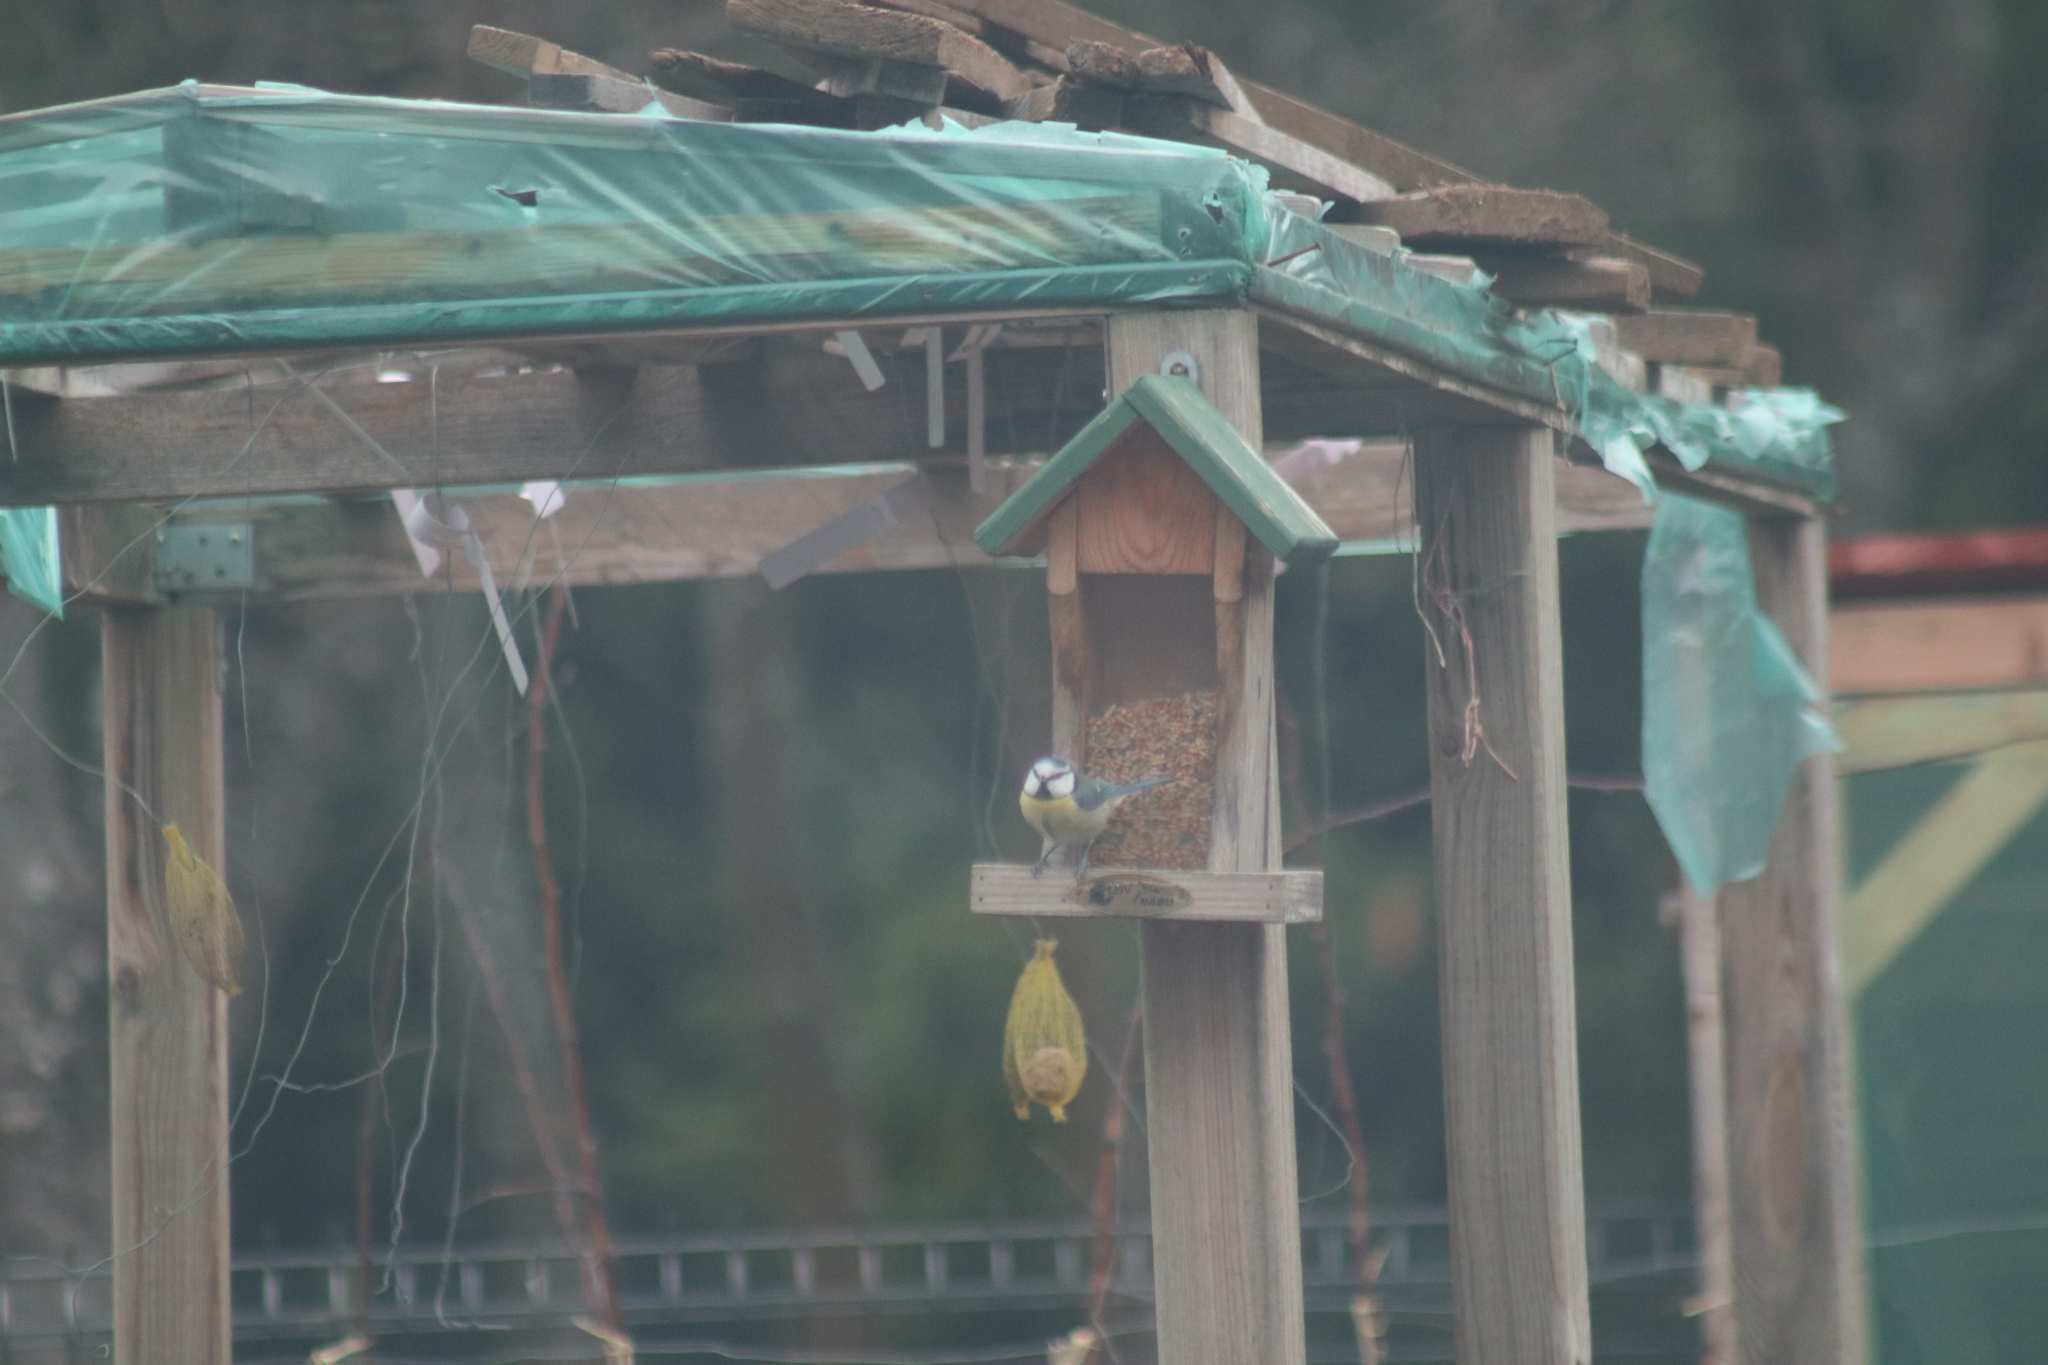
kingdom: Animalia
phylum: Chordata
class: Aves
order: Passeriformes
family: Paridae
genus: Cyanistes
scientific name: Cyanistes caeruleus
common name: Eurasian blue tit
